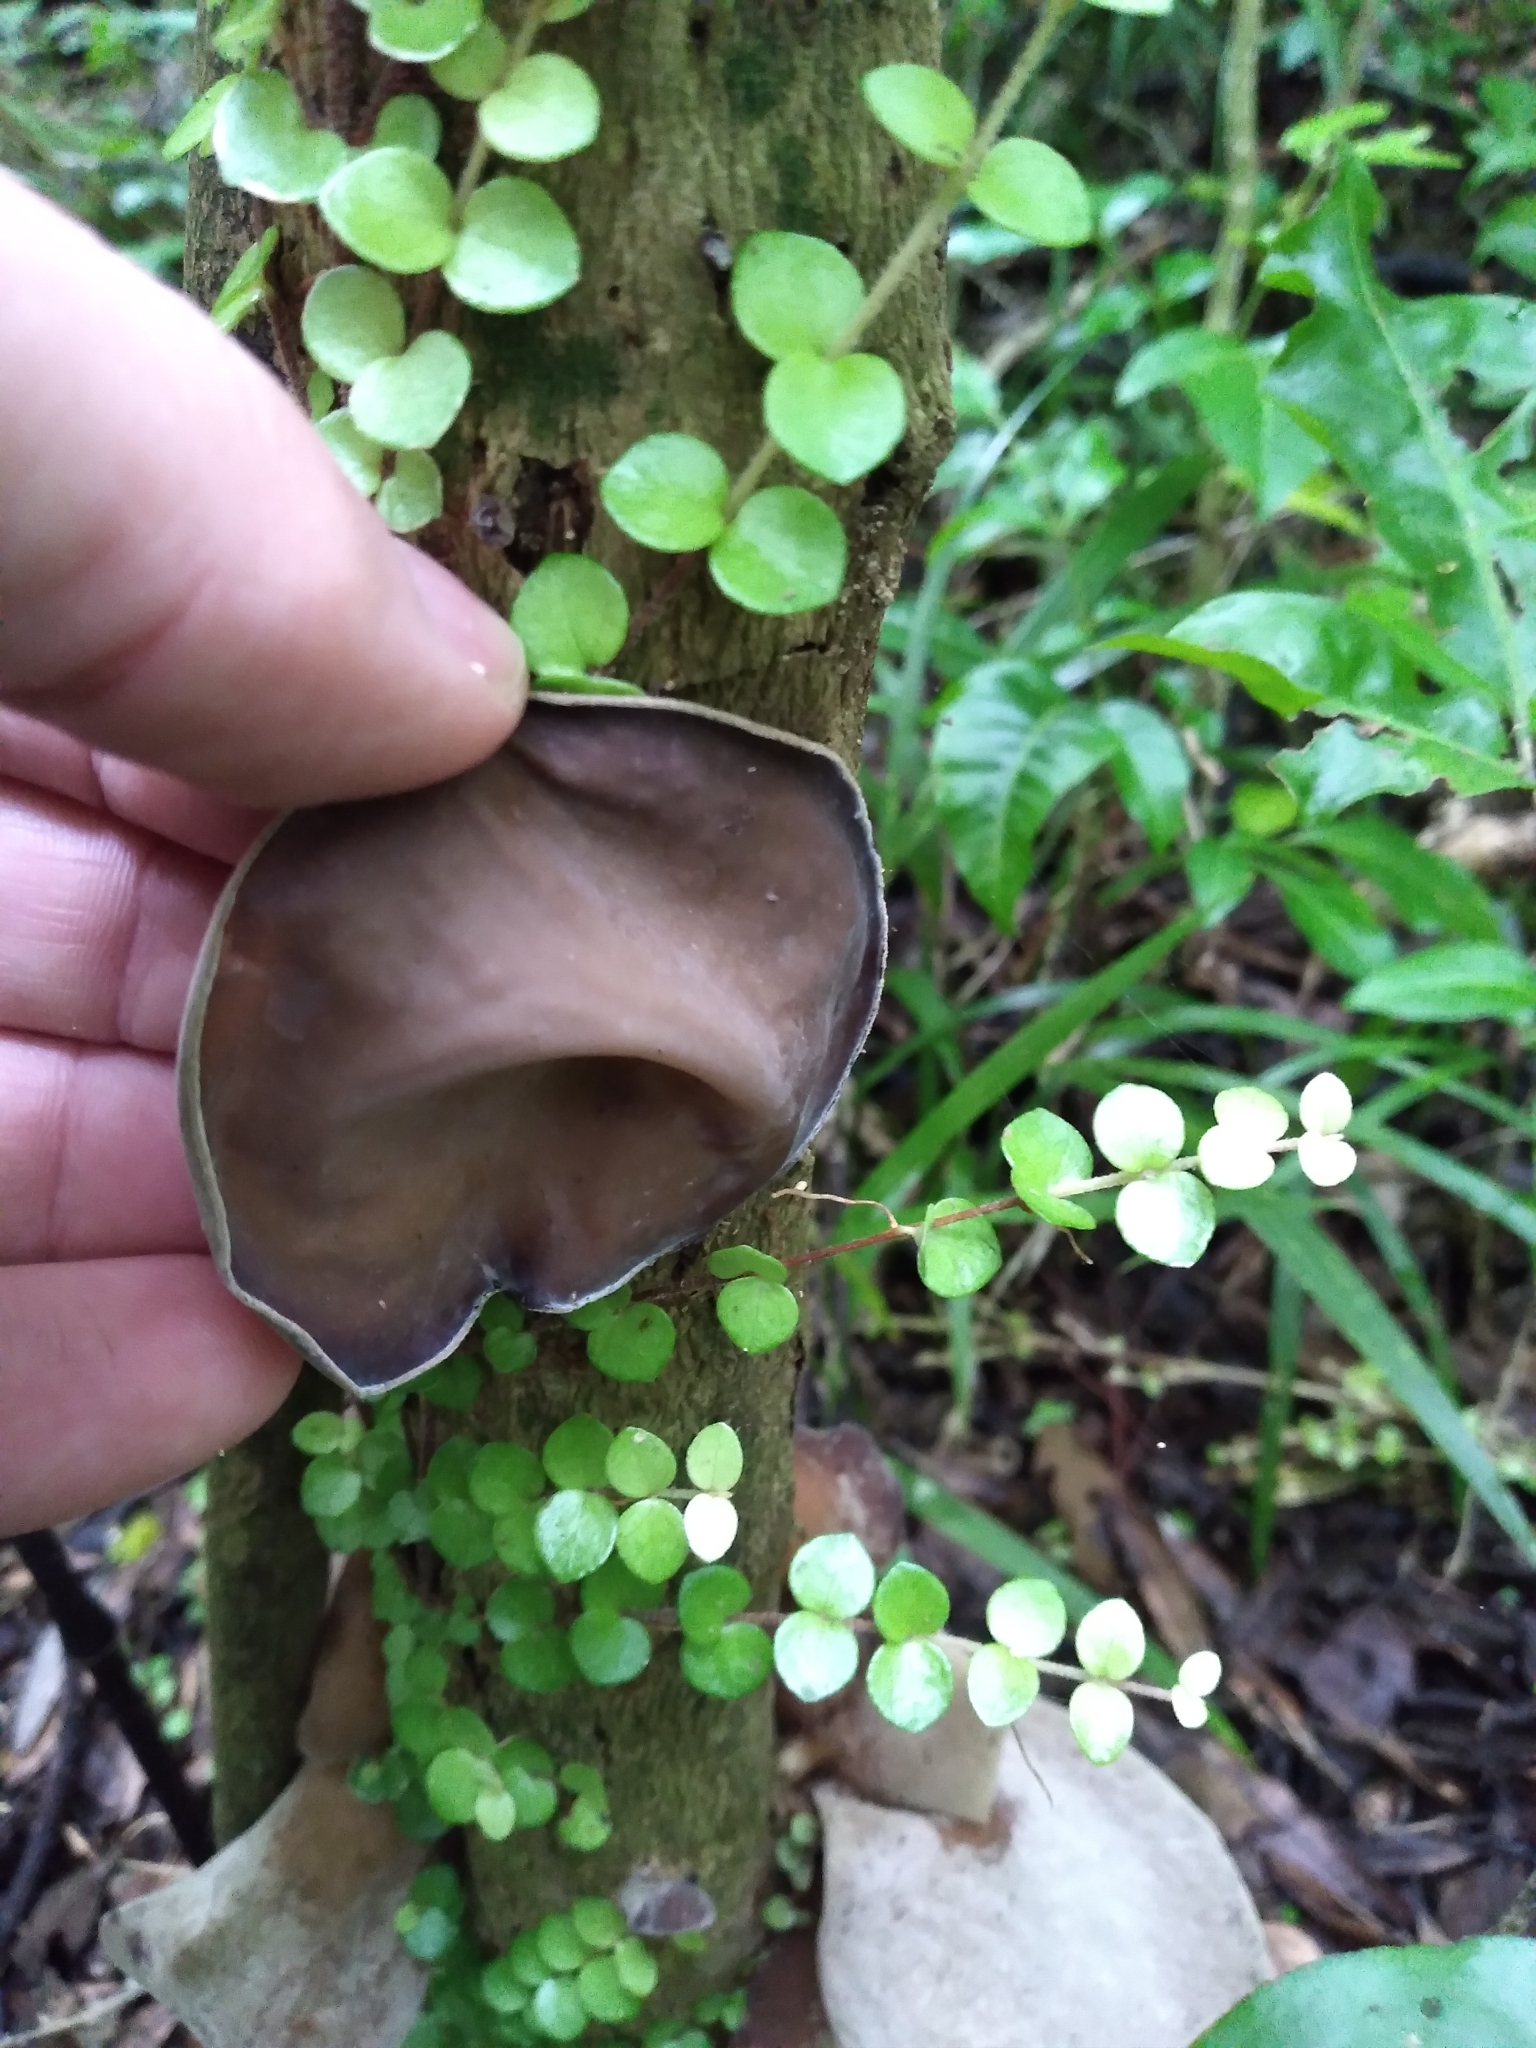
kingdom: Fungi
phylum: Basidiomycota
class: Agaricomycetes
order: Auriculariales
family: Auriculariaceae
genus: Auricularia
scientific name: Auricularia cornea
